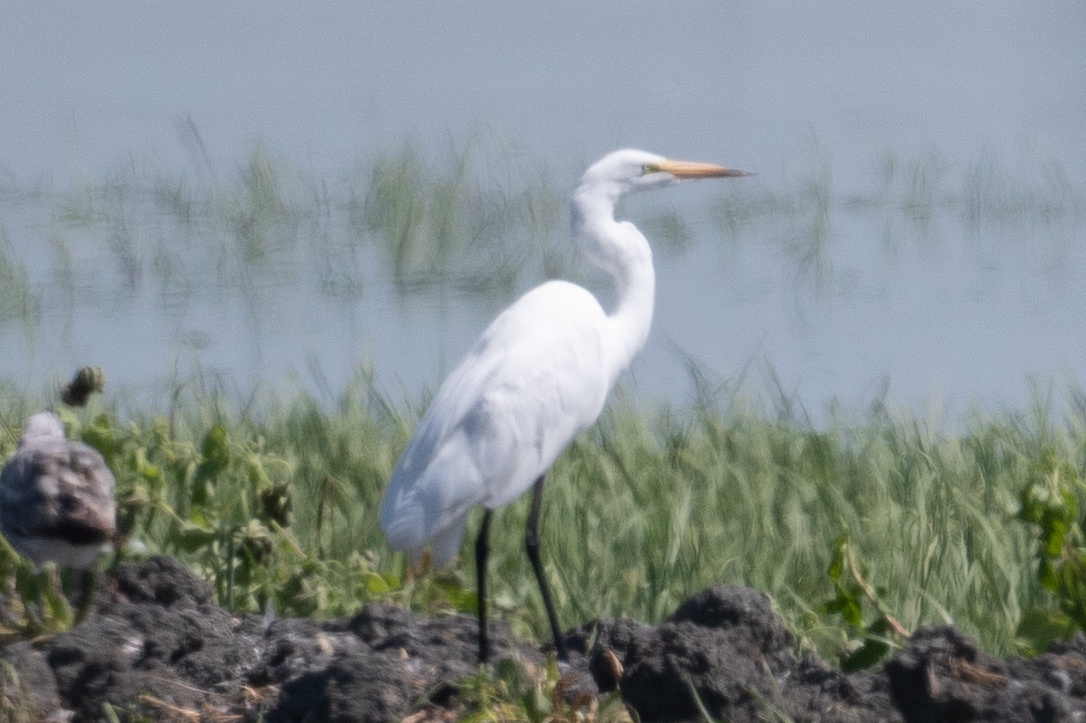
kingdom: Animalia
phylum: Chordata
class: Aves
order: Pelecaniformes
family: Ardeidae
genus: Ardea
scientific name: Ardea alba
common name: Great egret
